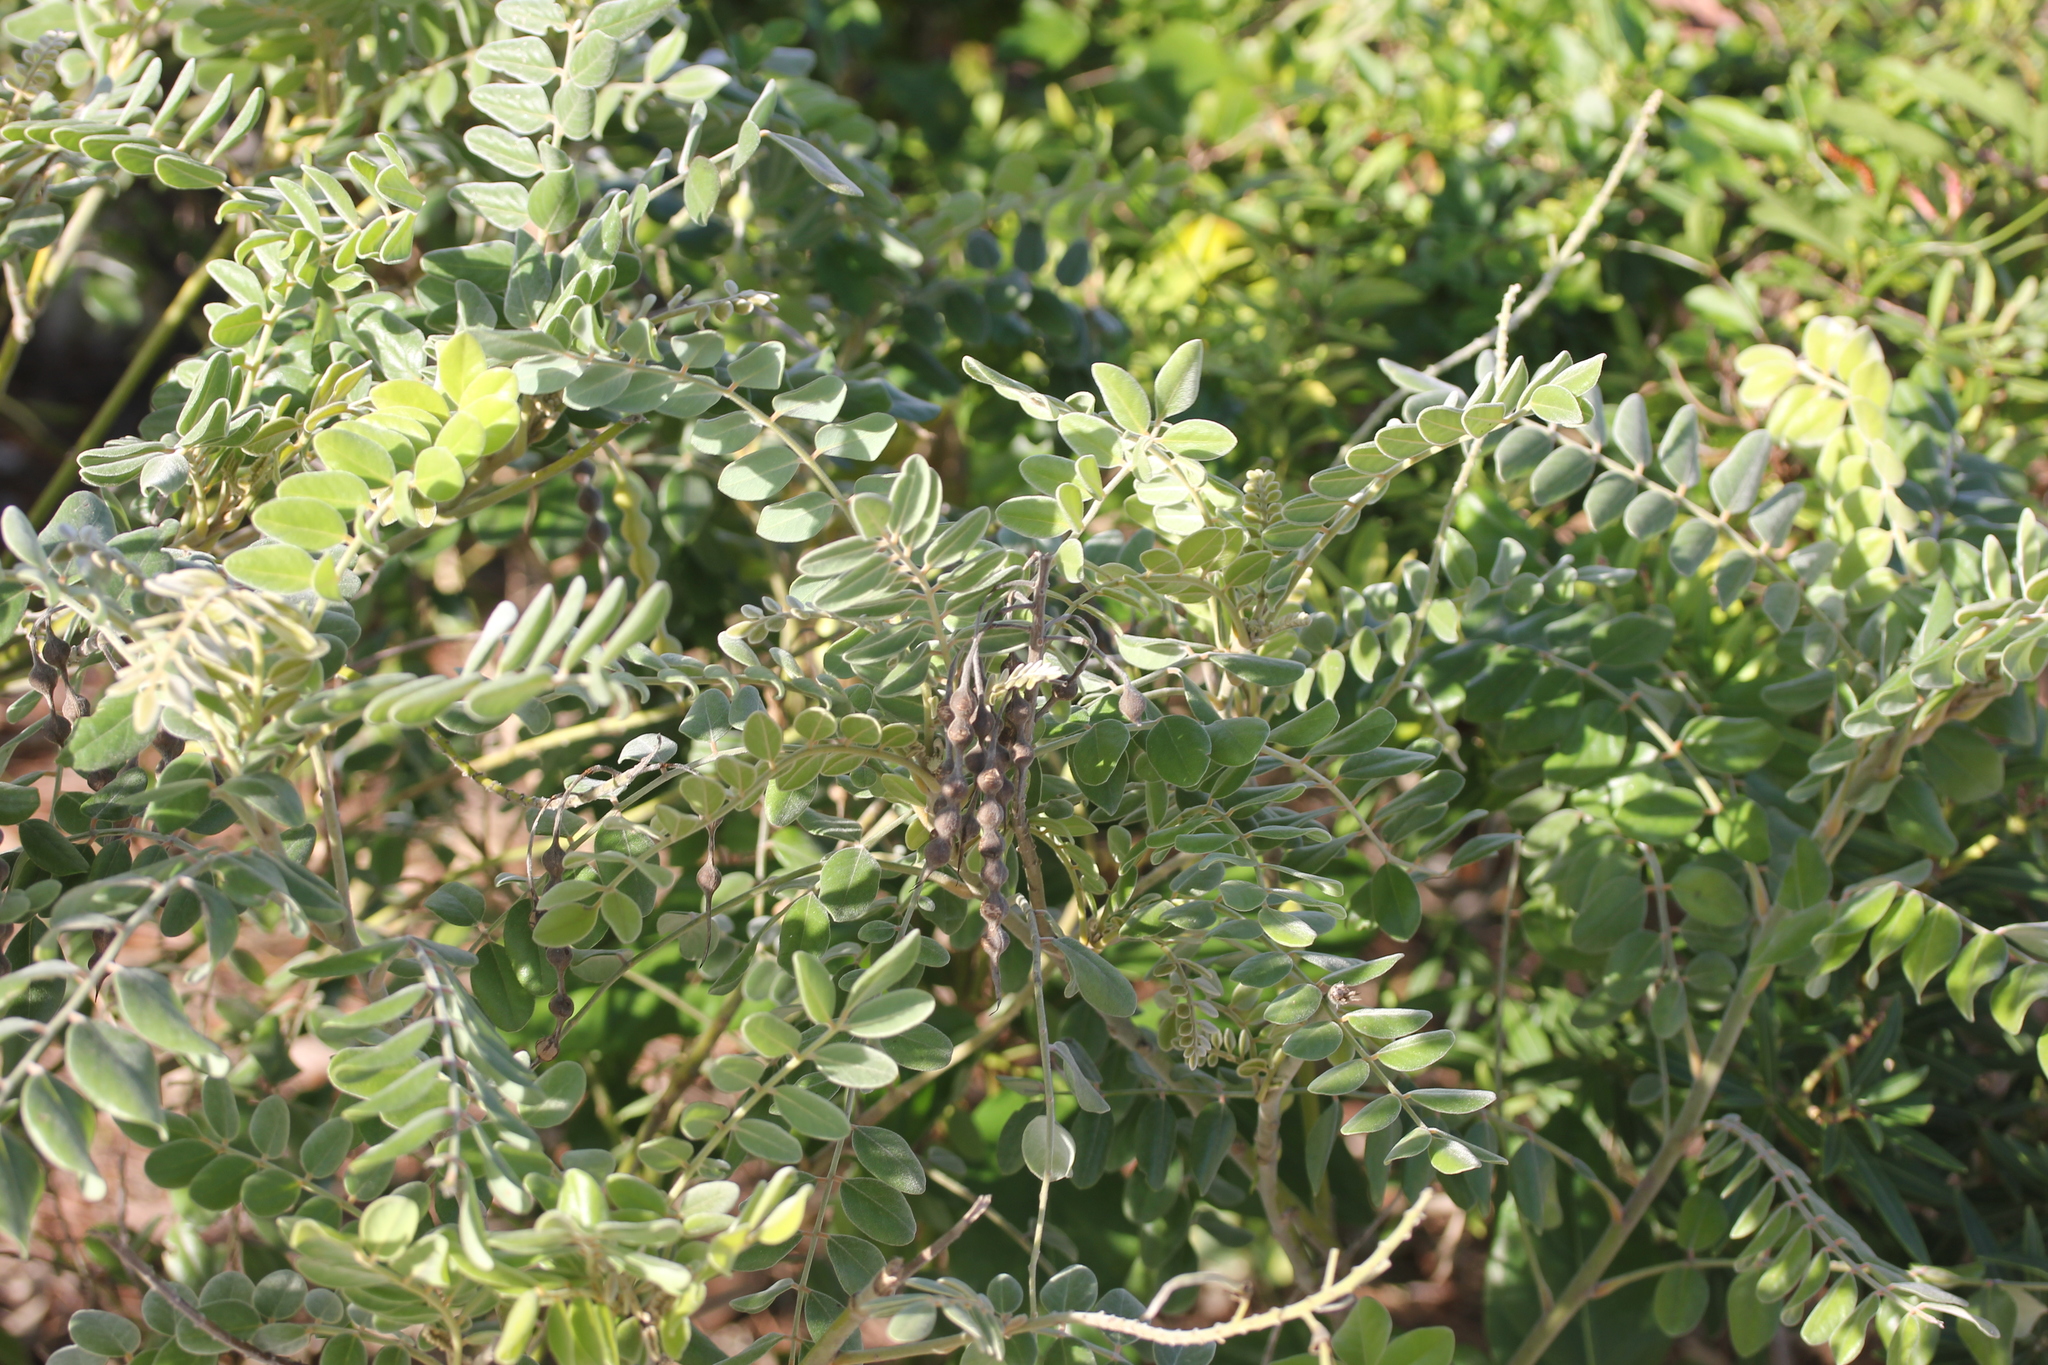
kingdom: Plantae
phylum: Tracheophyta
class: Magnoliopsida
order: Fabales
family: Fabaceae
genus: Sophora
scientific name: Sophora tomentosa
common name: Yellow necklacepod
